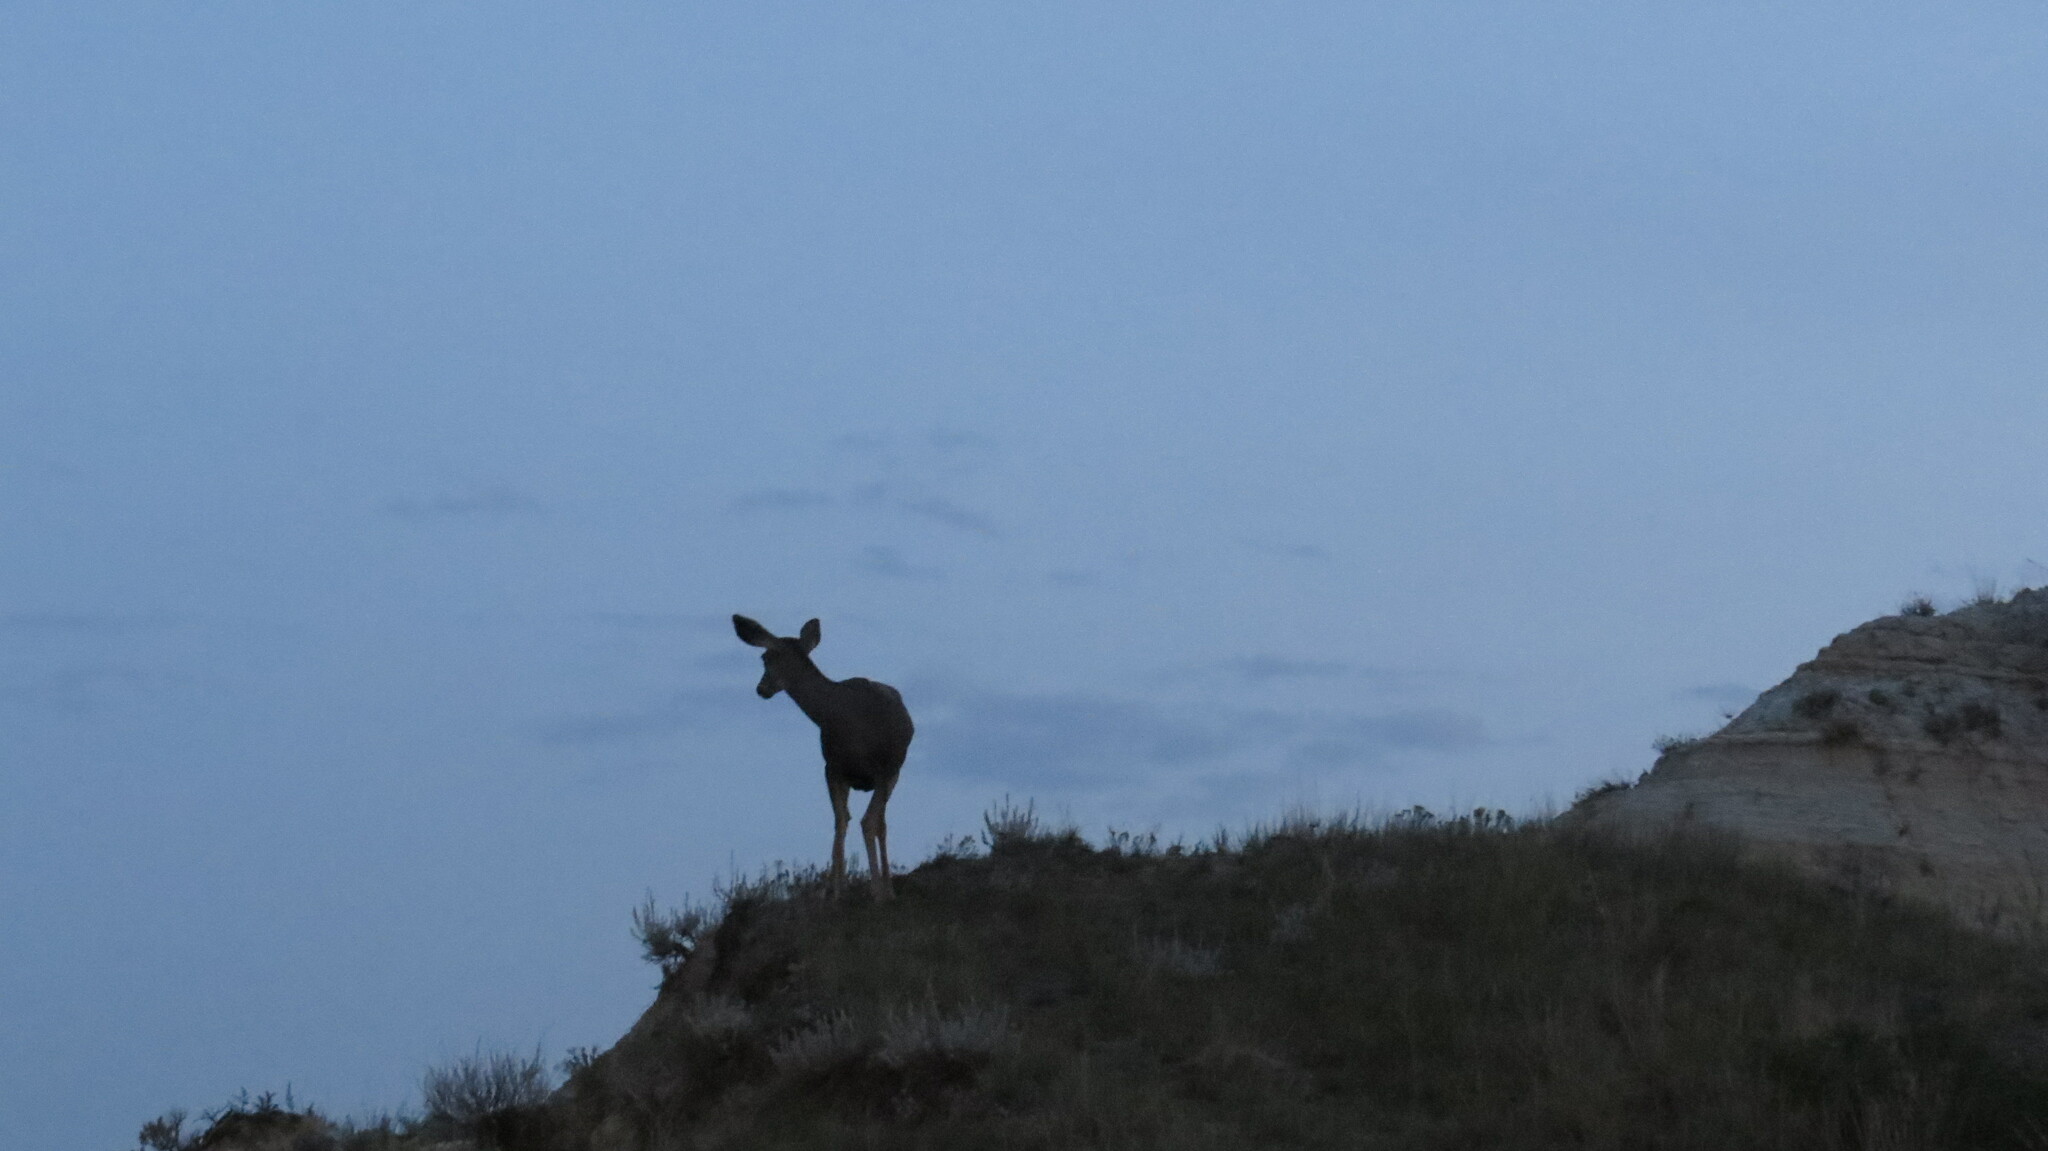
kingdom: Animalia
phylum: Chordata
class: Mammalia
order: Artiodactyla
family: Cervidae
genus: Odocoileus
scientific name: Odocoileus hemionus
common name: Mule deer
